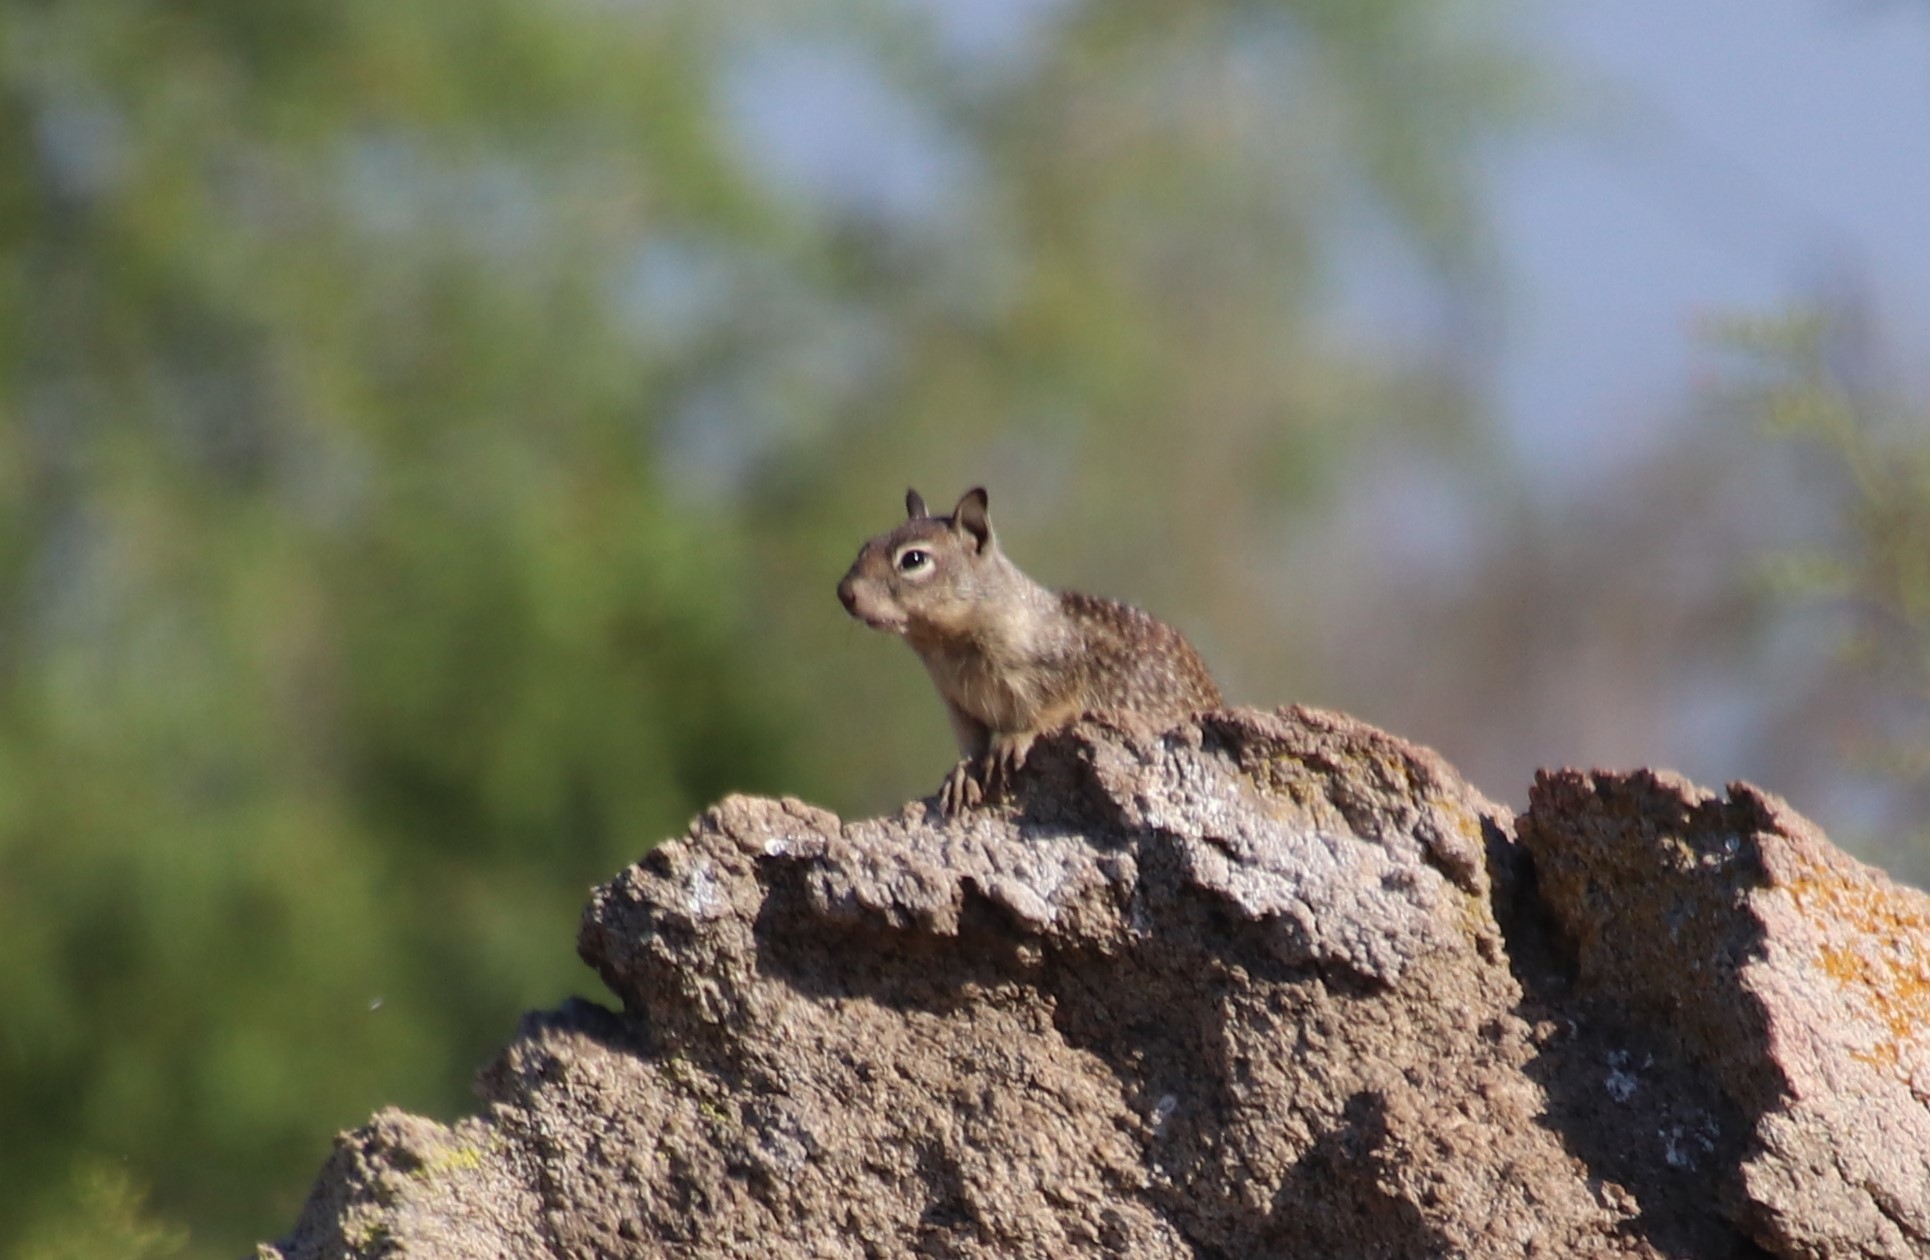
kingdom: Animalia
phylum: Chordata
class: Mammalia
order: Rodentia
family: Sciuridae
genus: Otospermophilus
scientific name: Otospermophilus beecheyi
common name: California ground squirrel
